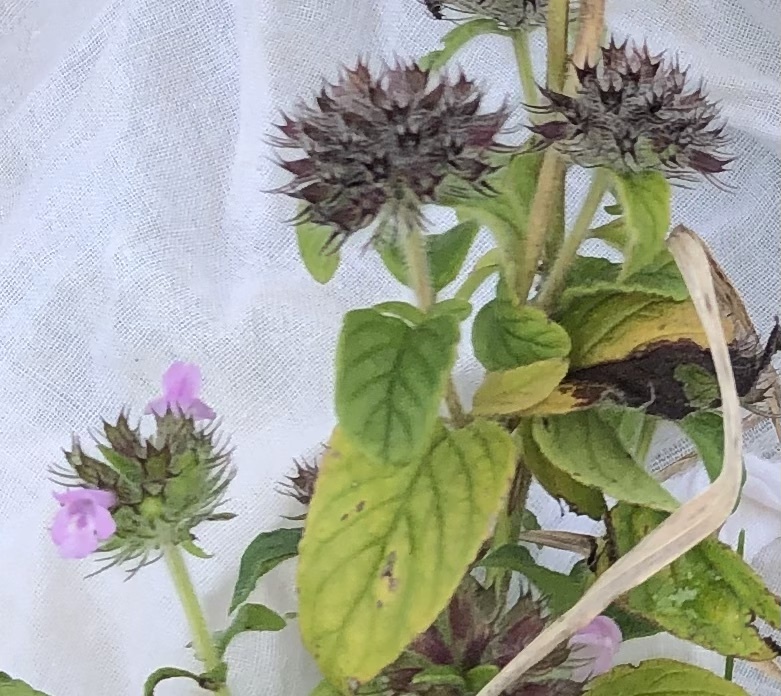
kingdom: Plantae
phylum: Tracheophyta
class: Magnoliopsida
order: Lamiales
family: Lamiaceae
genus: Clinopodium
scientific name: Clinopodium vulgare
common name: Wild basil
